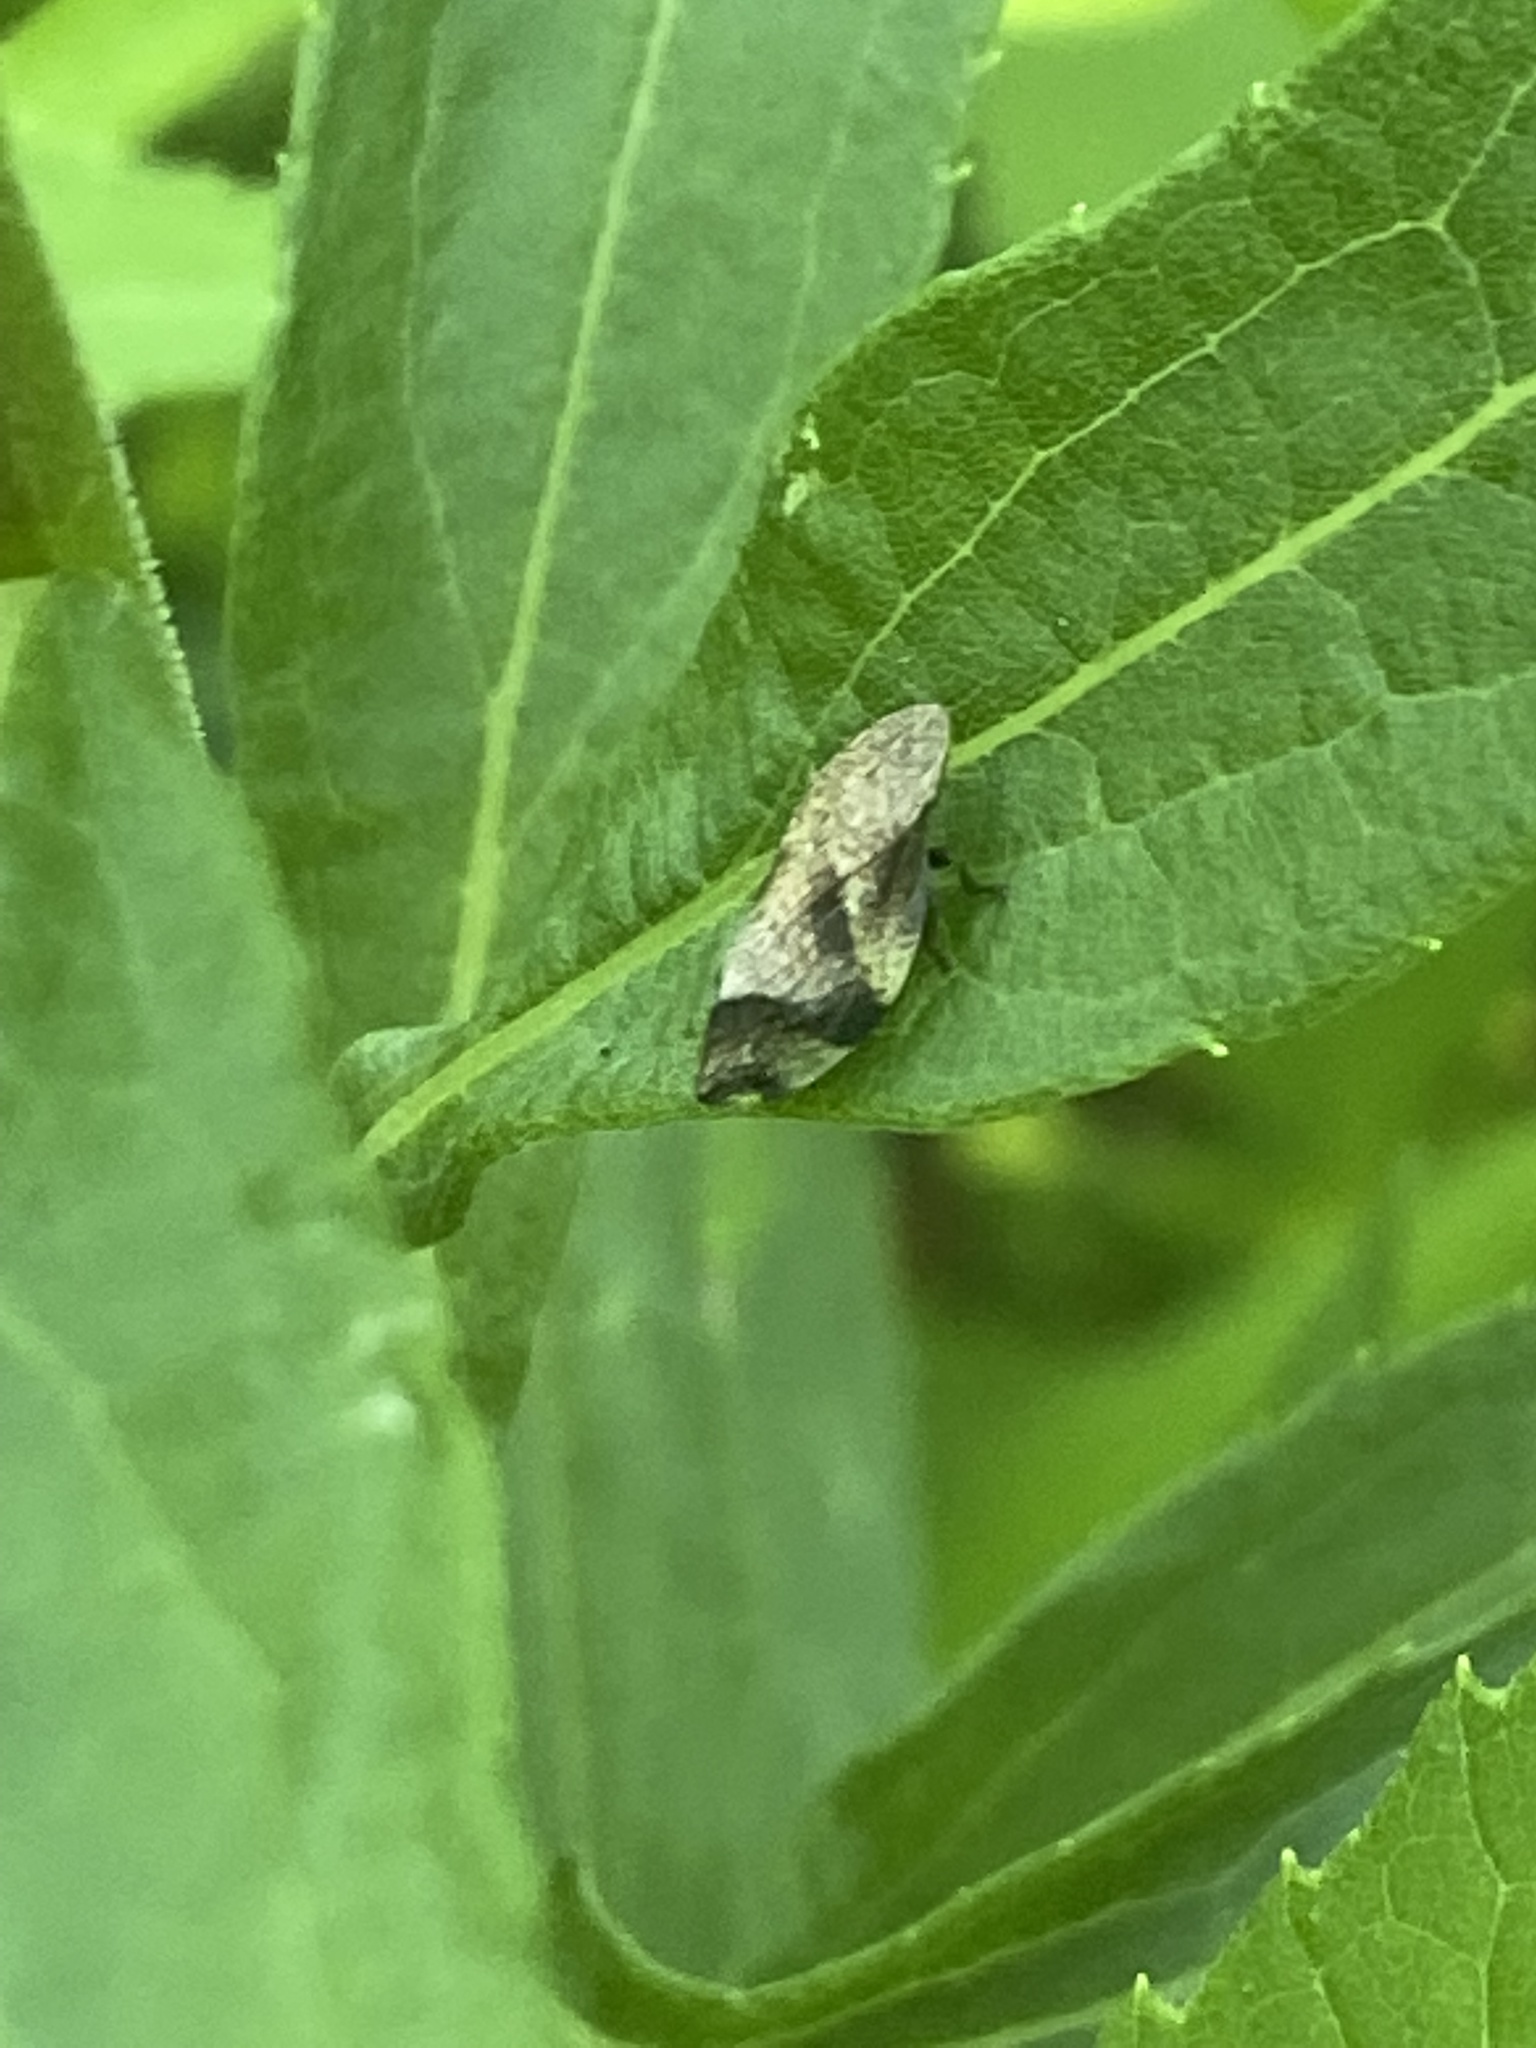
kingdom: Animalia
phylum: Arthropoda
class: Insecta
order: Hemiptera
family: Aphrophoridae
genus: Lepyronia
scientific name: Lepyronia quadrangularis
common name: Diamond-backed spittlebug
